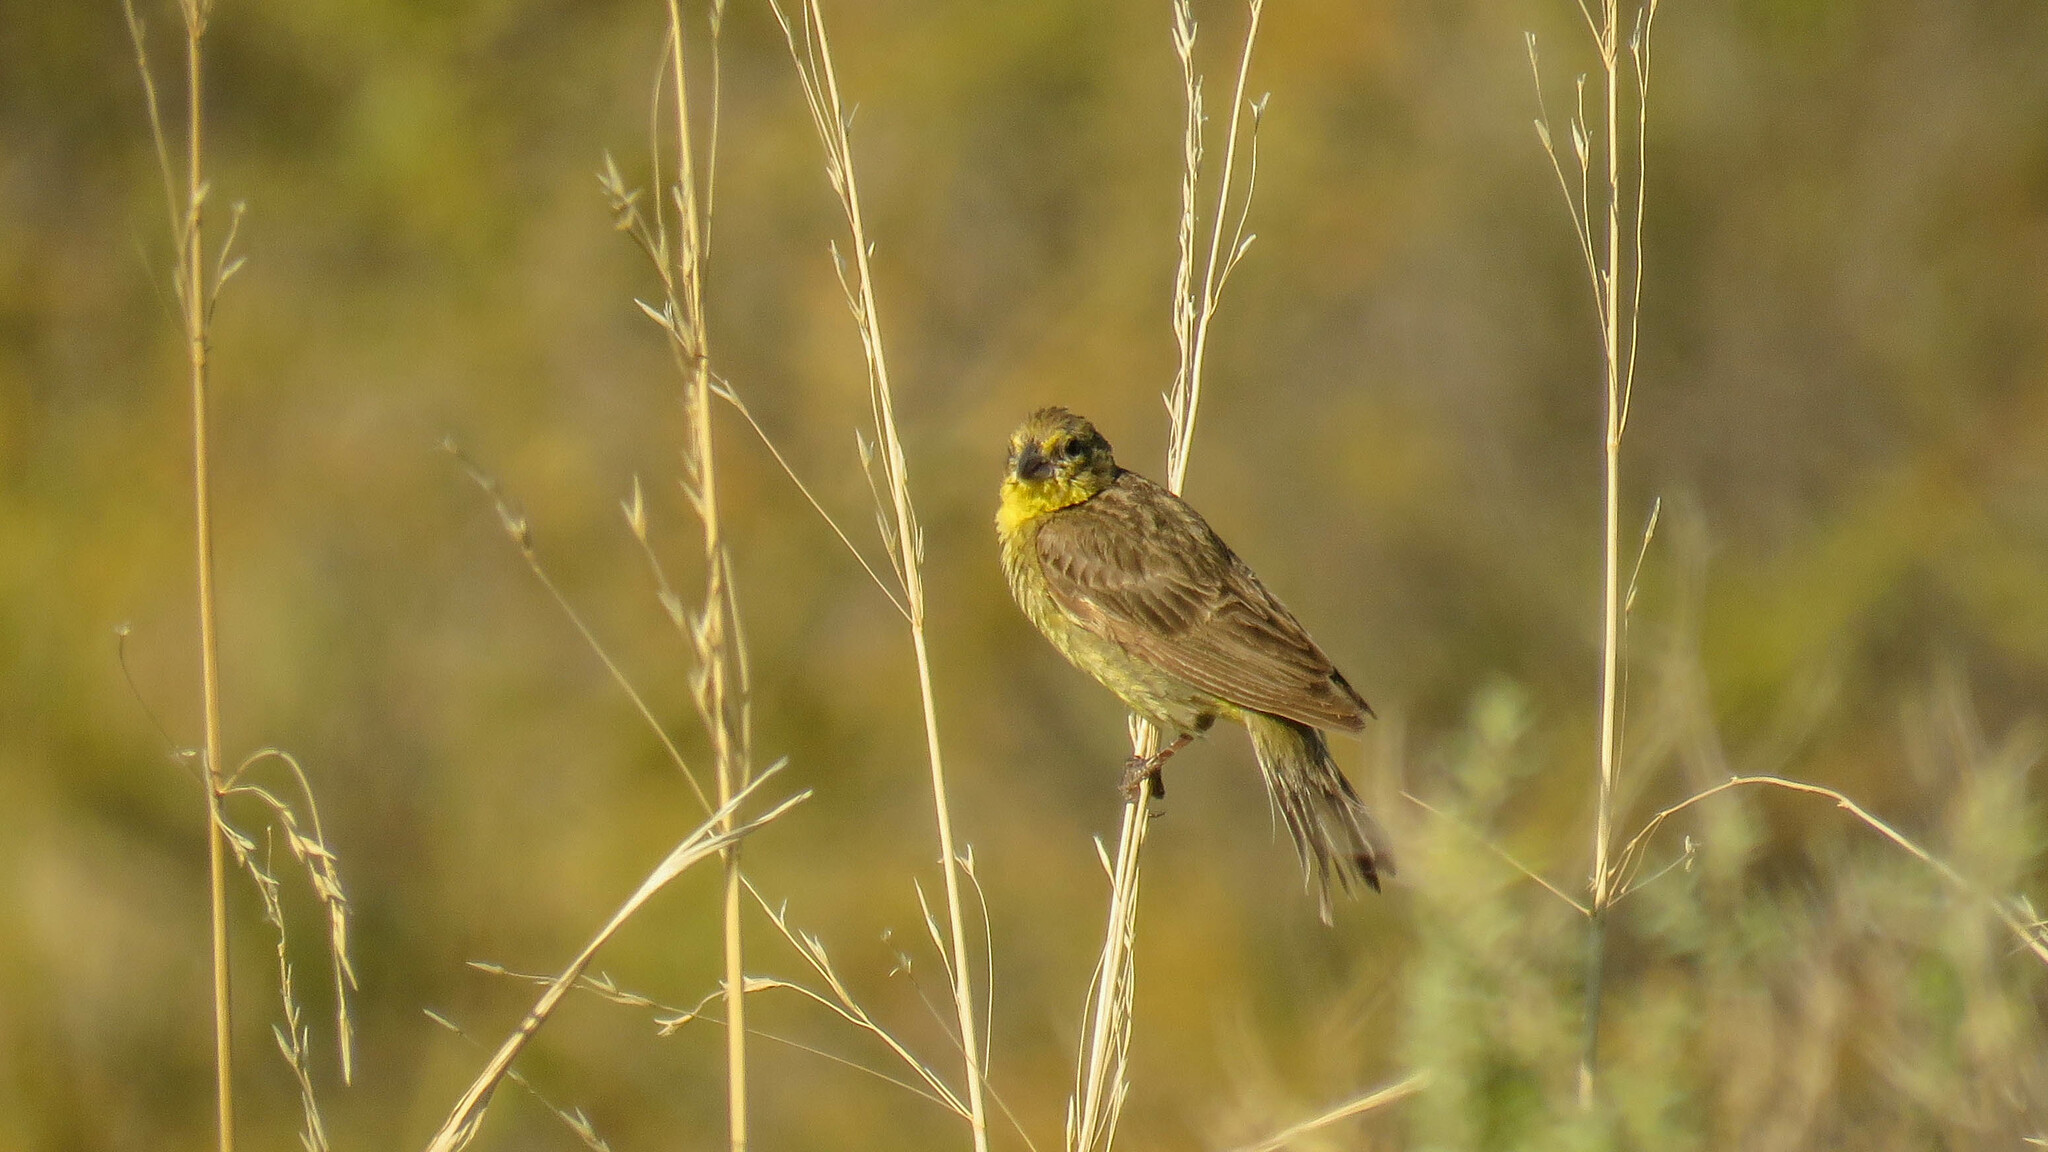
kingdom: Animalia
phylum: Chordata
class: Aves
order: Passeriformes
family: Thraupidae
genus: Sicalis
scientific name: Sicalis luteola
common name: Grassland yellow-finch
